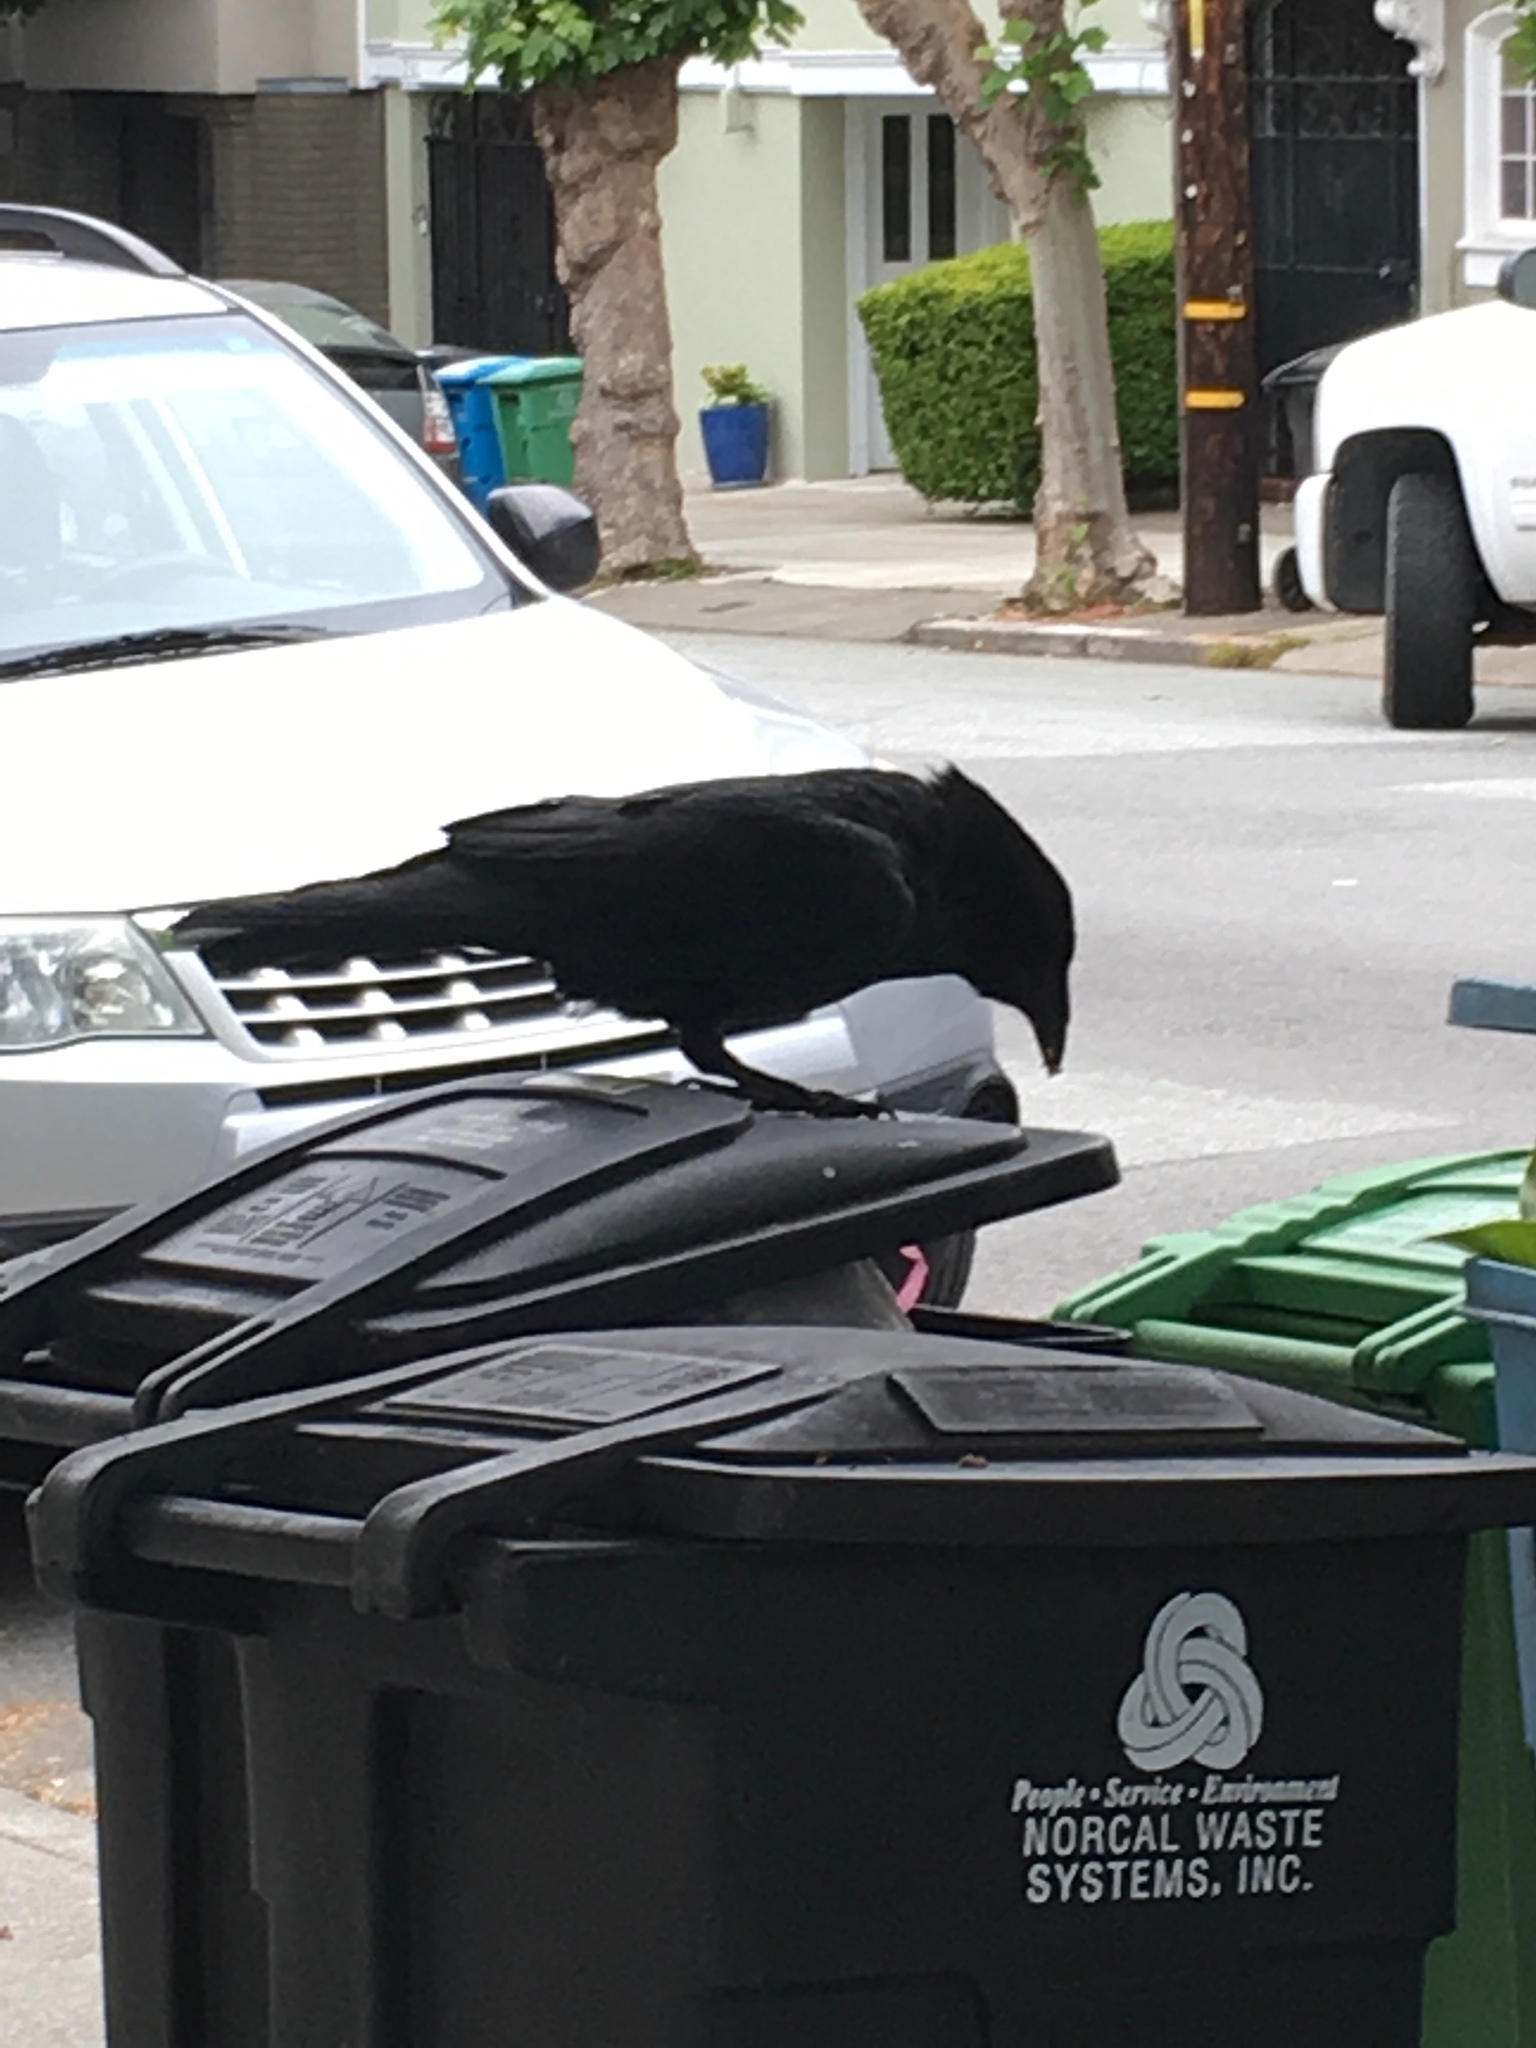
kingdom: Animalia
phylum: Chordata
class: Aves
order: Passeriformes
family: Corvidae
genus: Corvus
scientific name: Corvus brachyrhynchos
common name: American crow
